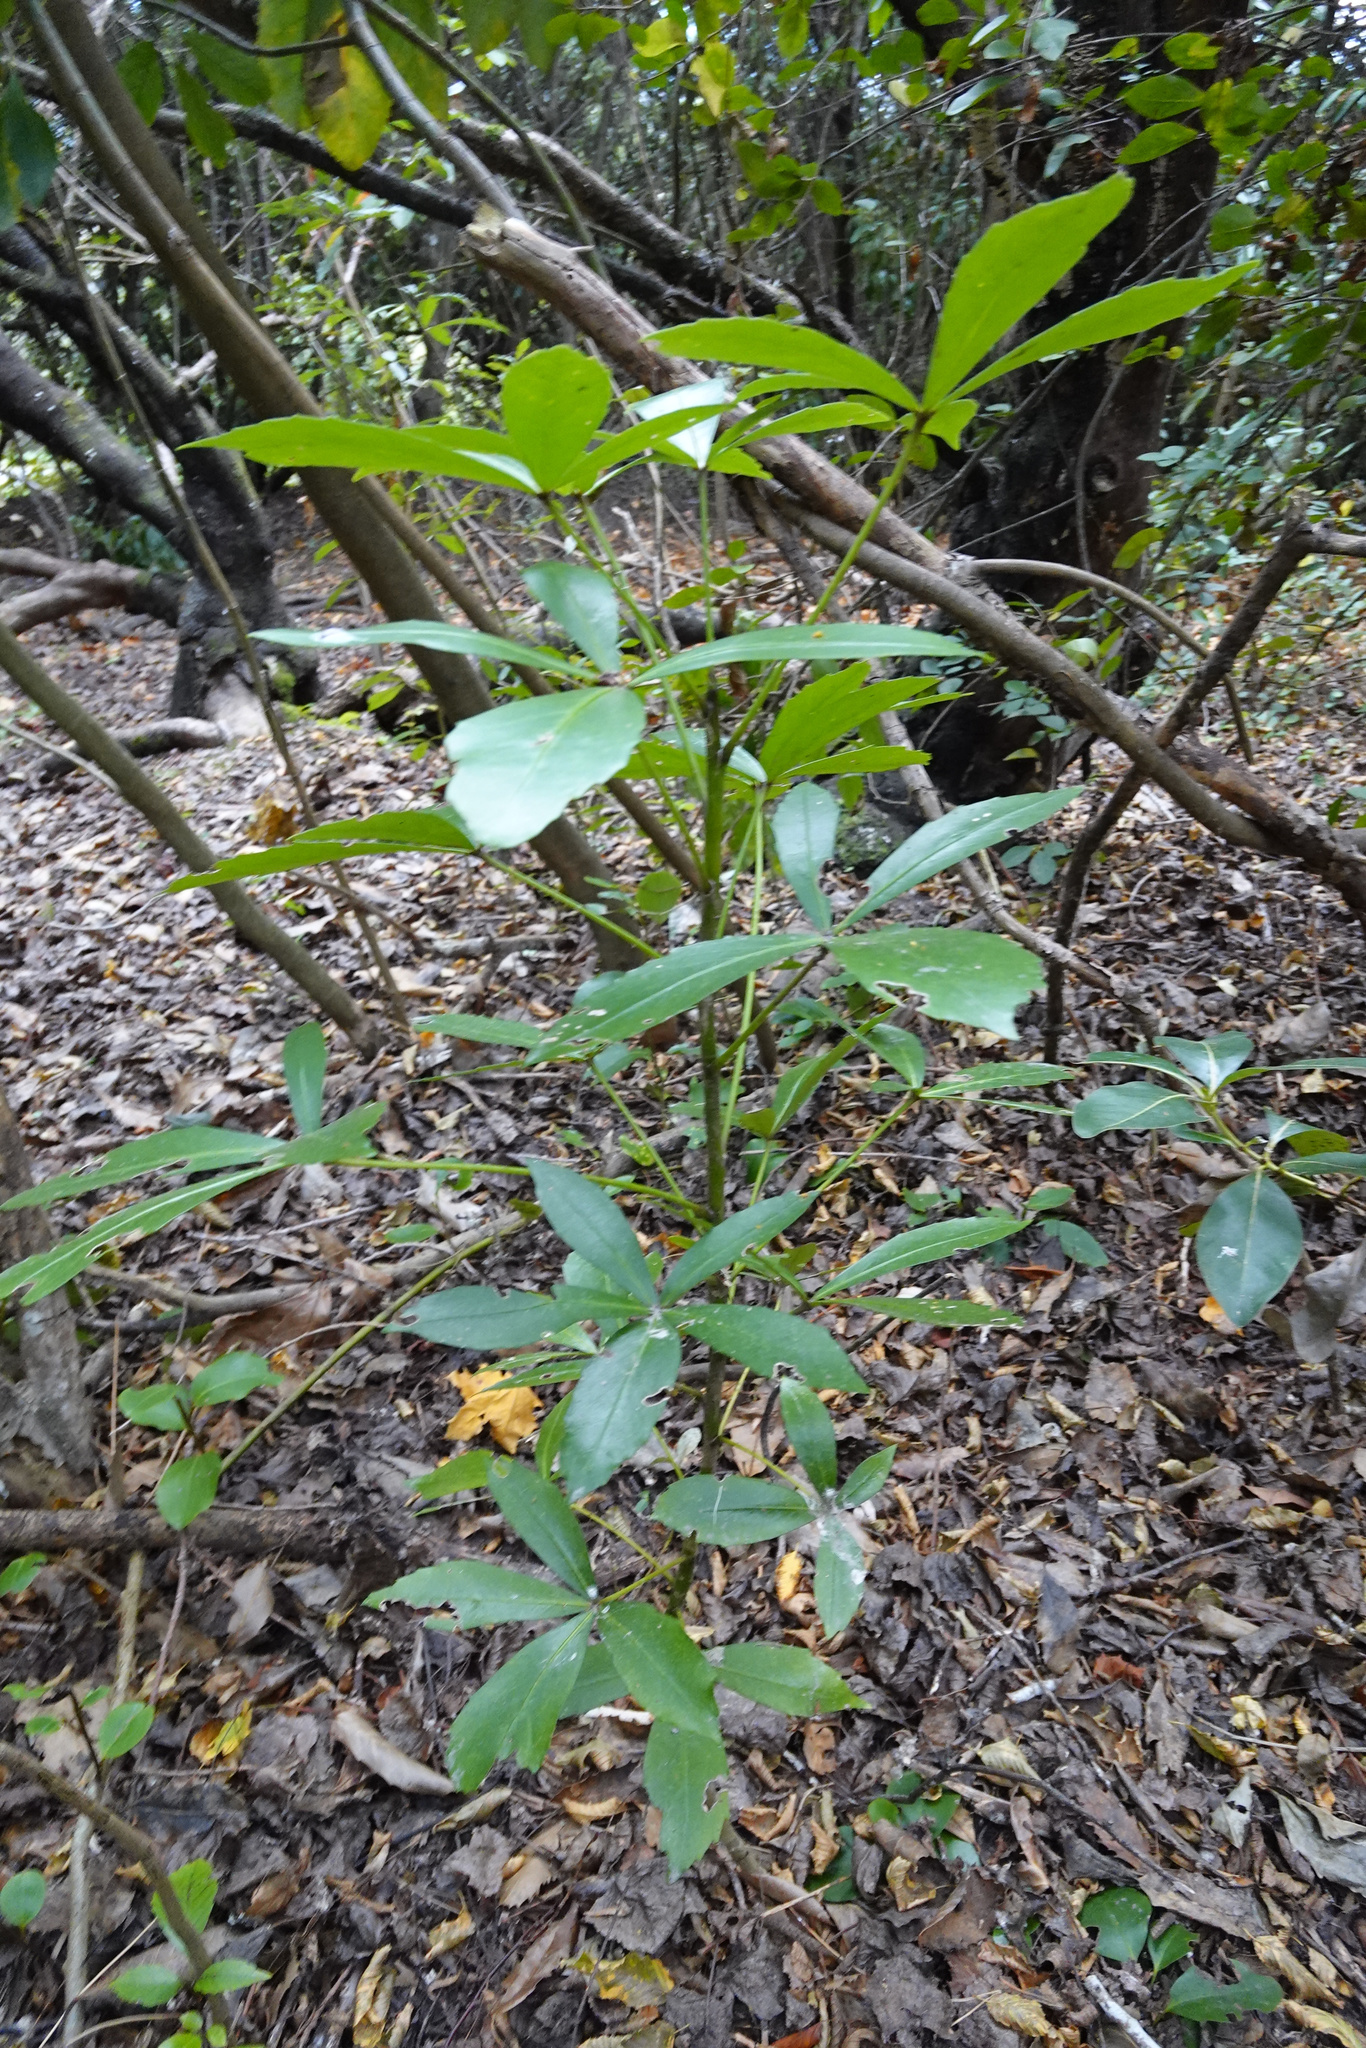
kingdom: Plantae
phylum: Tracheophyta
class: Magnoliopsida
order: Apiales
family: Araliaceae
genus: Pseudopanax
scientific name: Pseudopanax
